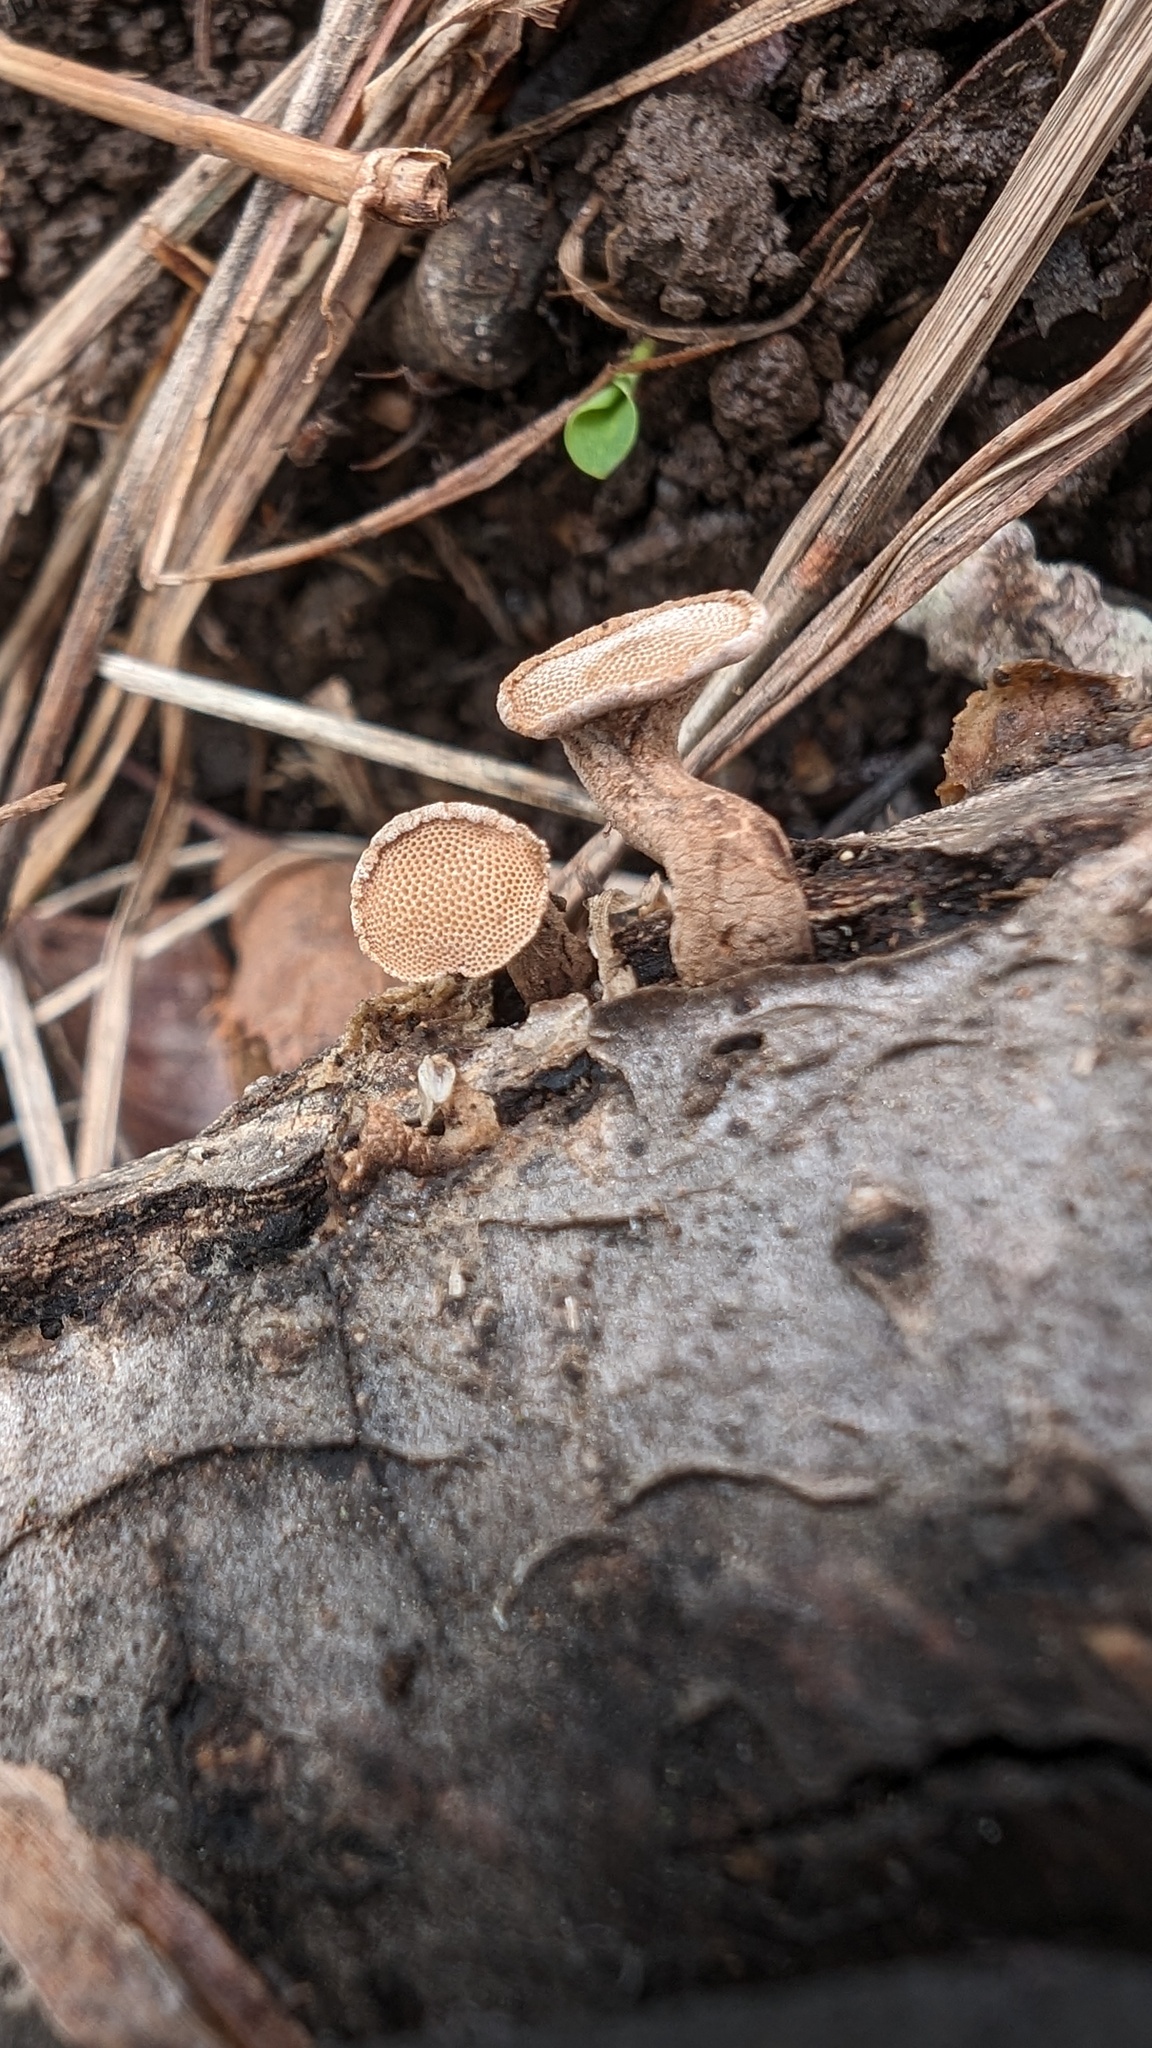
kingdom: Fungi
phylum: Basidiomycota
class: Agaricomycetes
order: Agaricales
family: Schizophyllaceae
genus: Porodisculus
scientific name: Porodisculus pendulus
